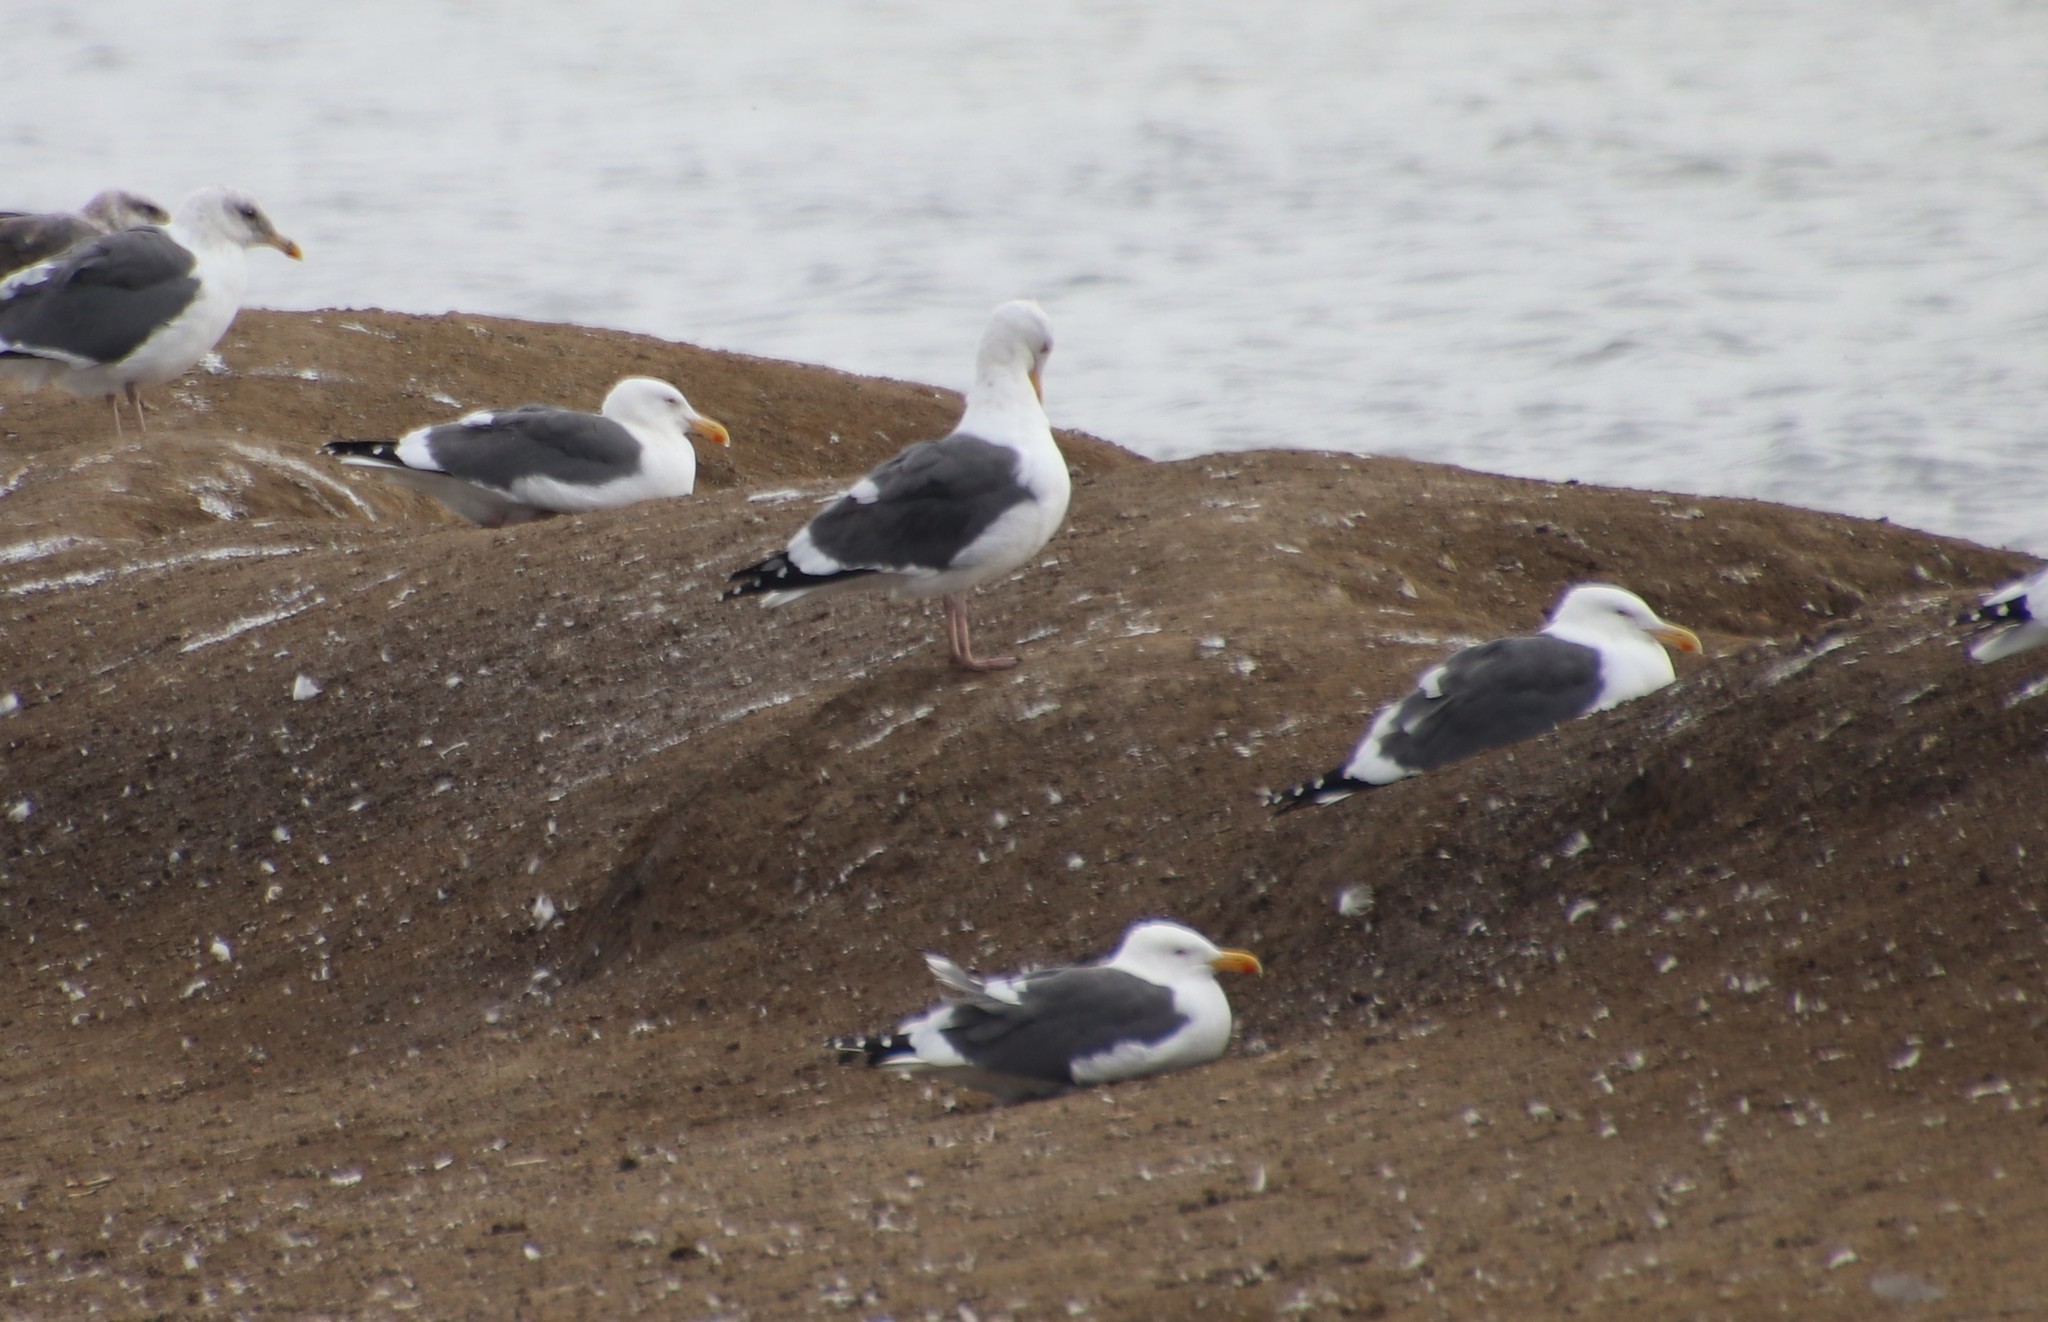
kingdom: Animalia
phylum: Chordata
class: Aves
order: Charadriiformes
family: Laridae
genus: Larus
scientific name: Larus occidentalis
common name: Western gull
